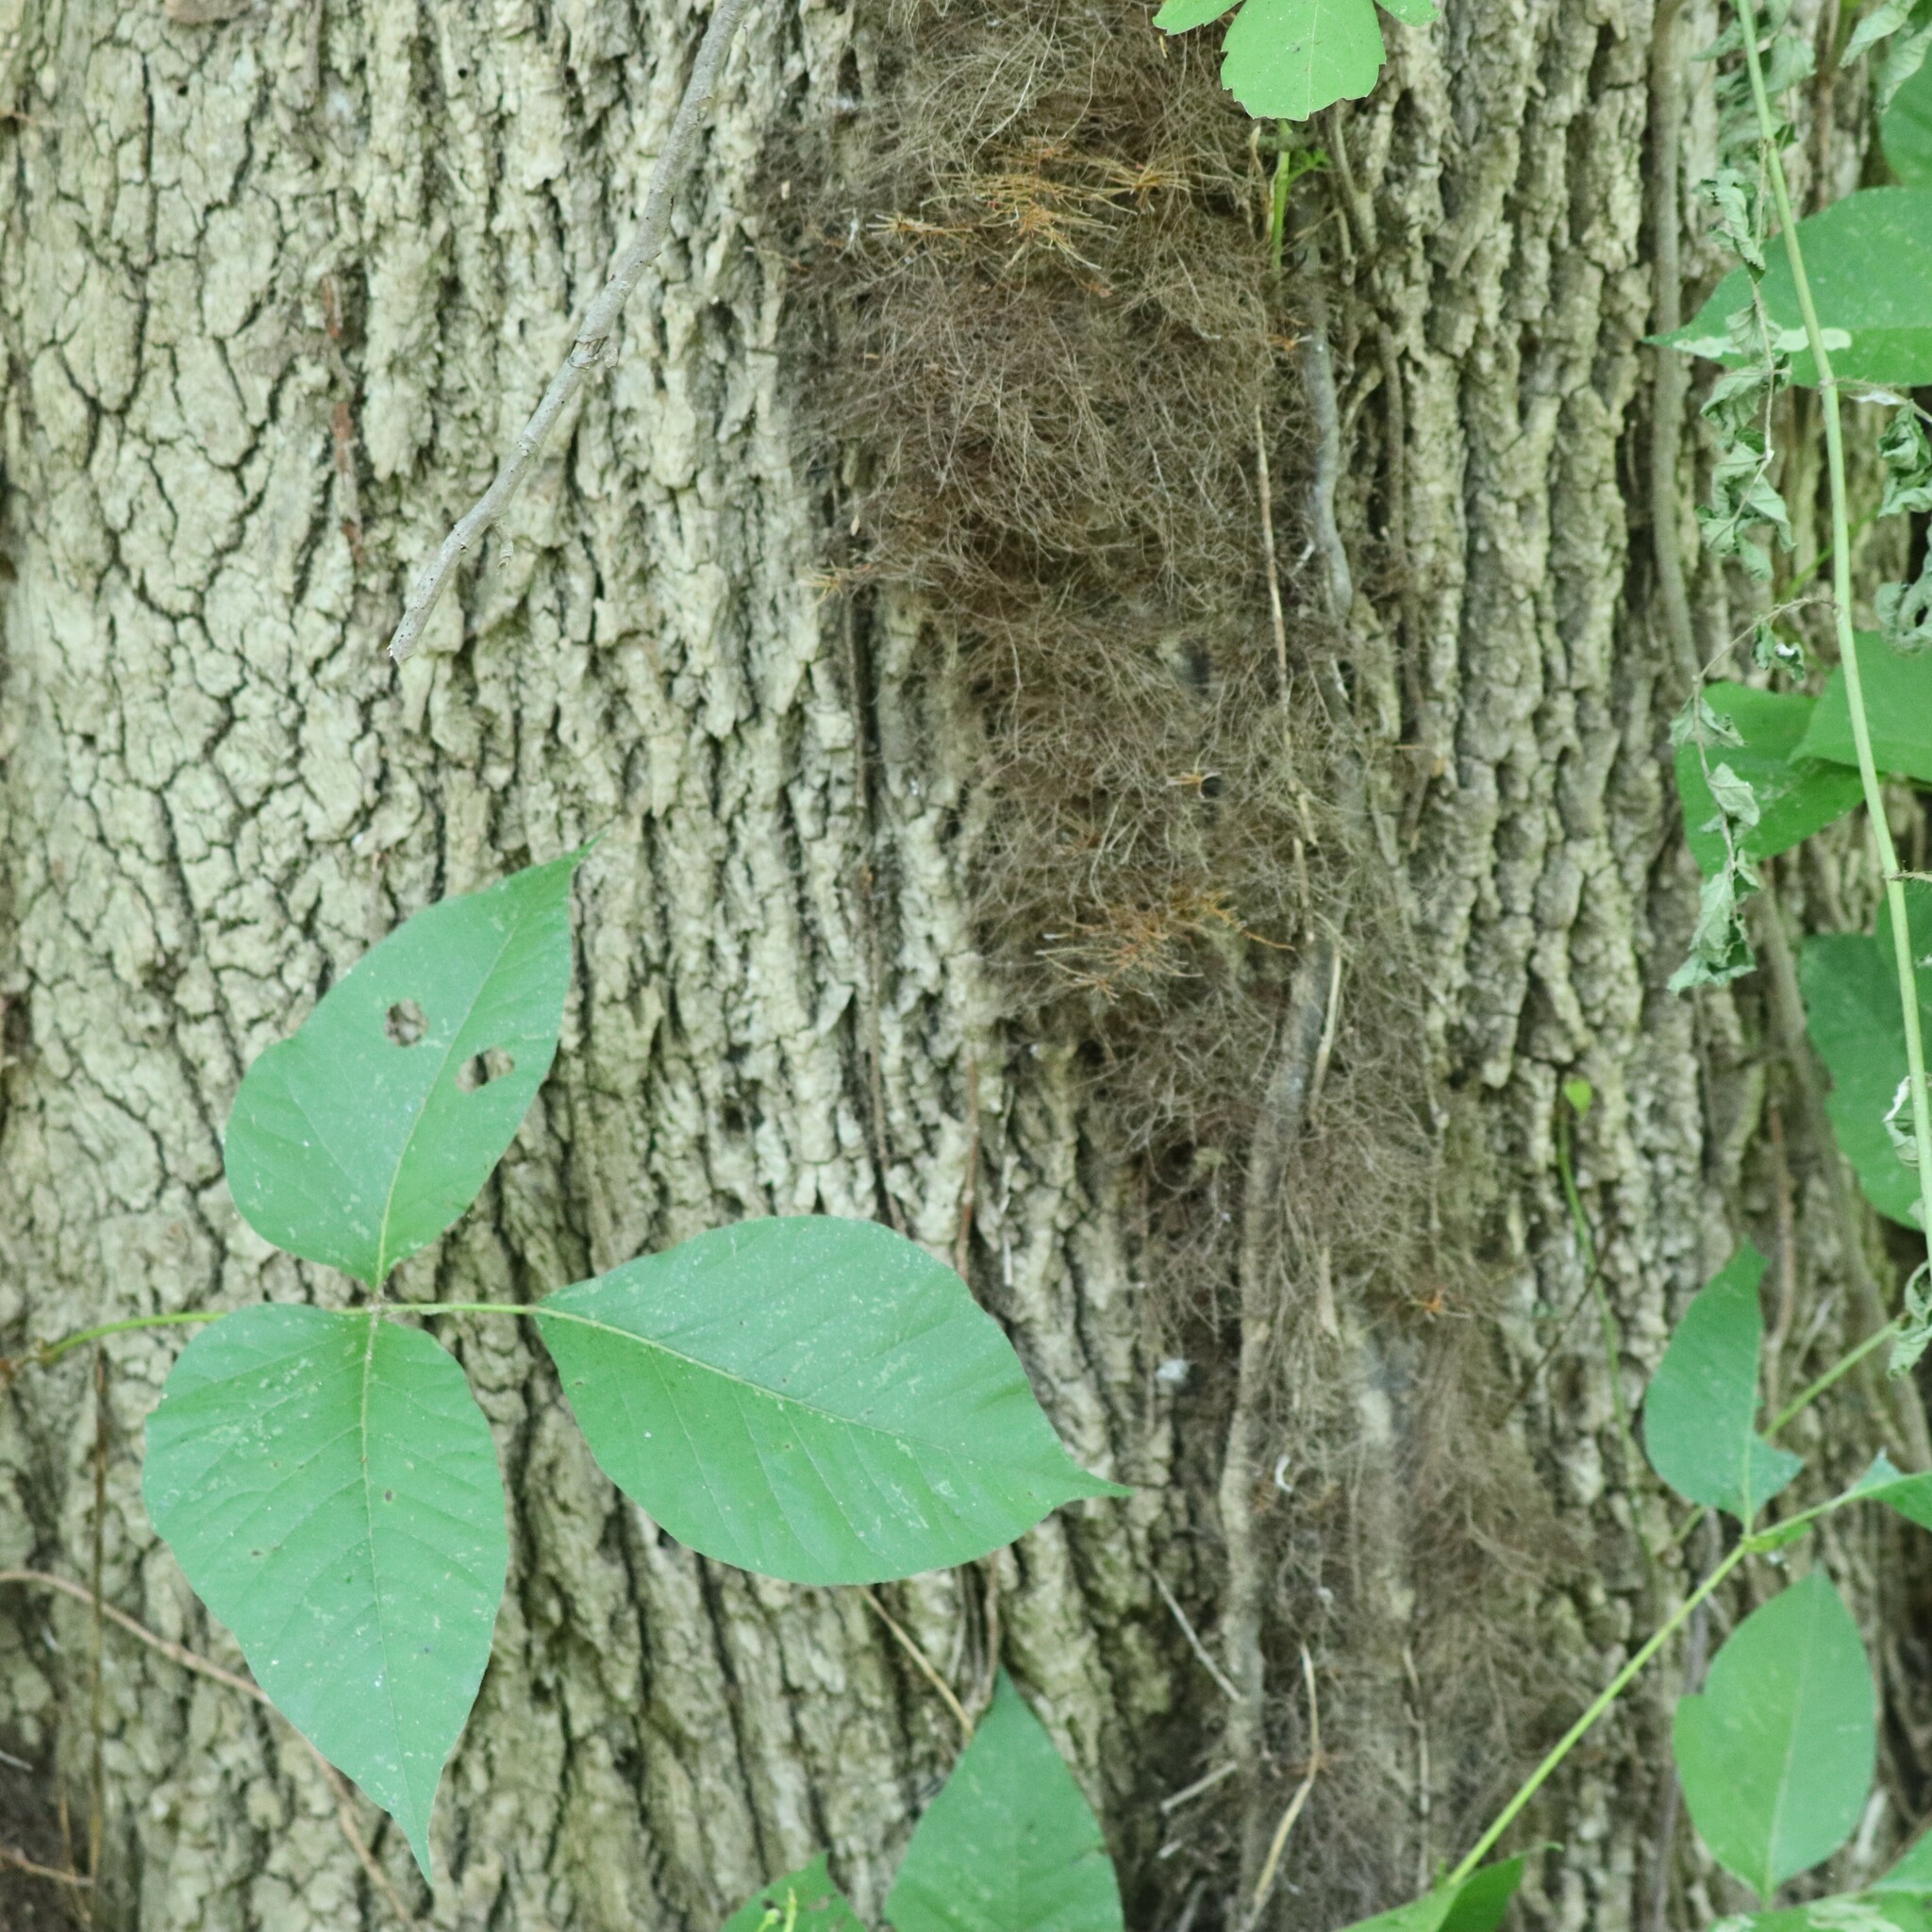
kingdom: Plantae
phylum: Tracheophyta
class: Magnoliopsida
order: Sapindales
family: Anacardiaceae
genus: Toxicodendron
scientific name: Toxicodendron radicans
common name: Poison ivy
